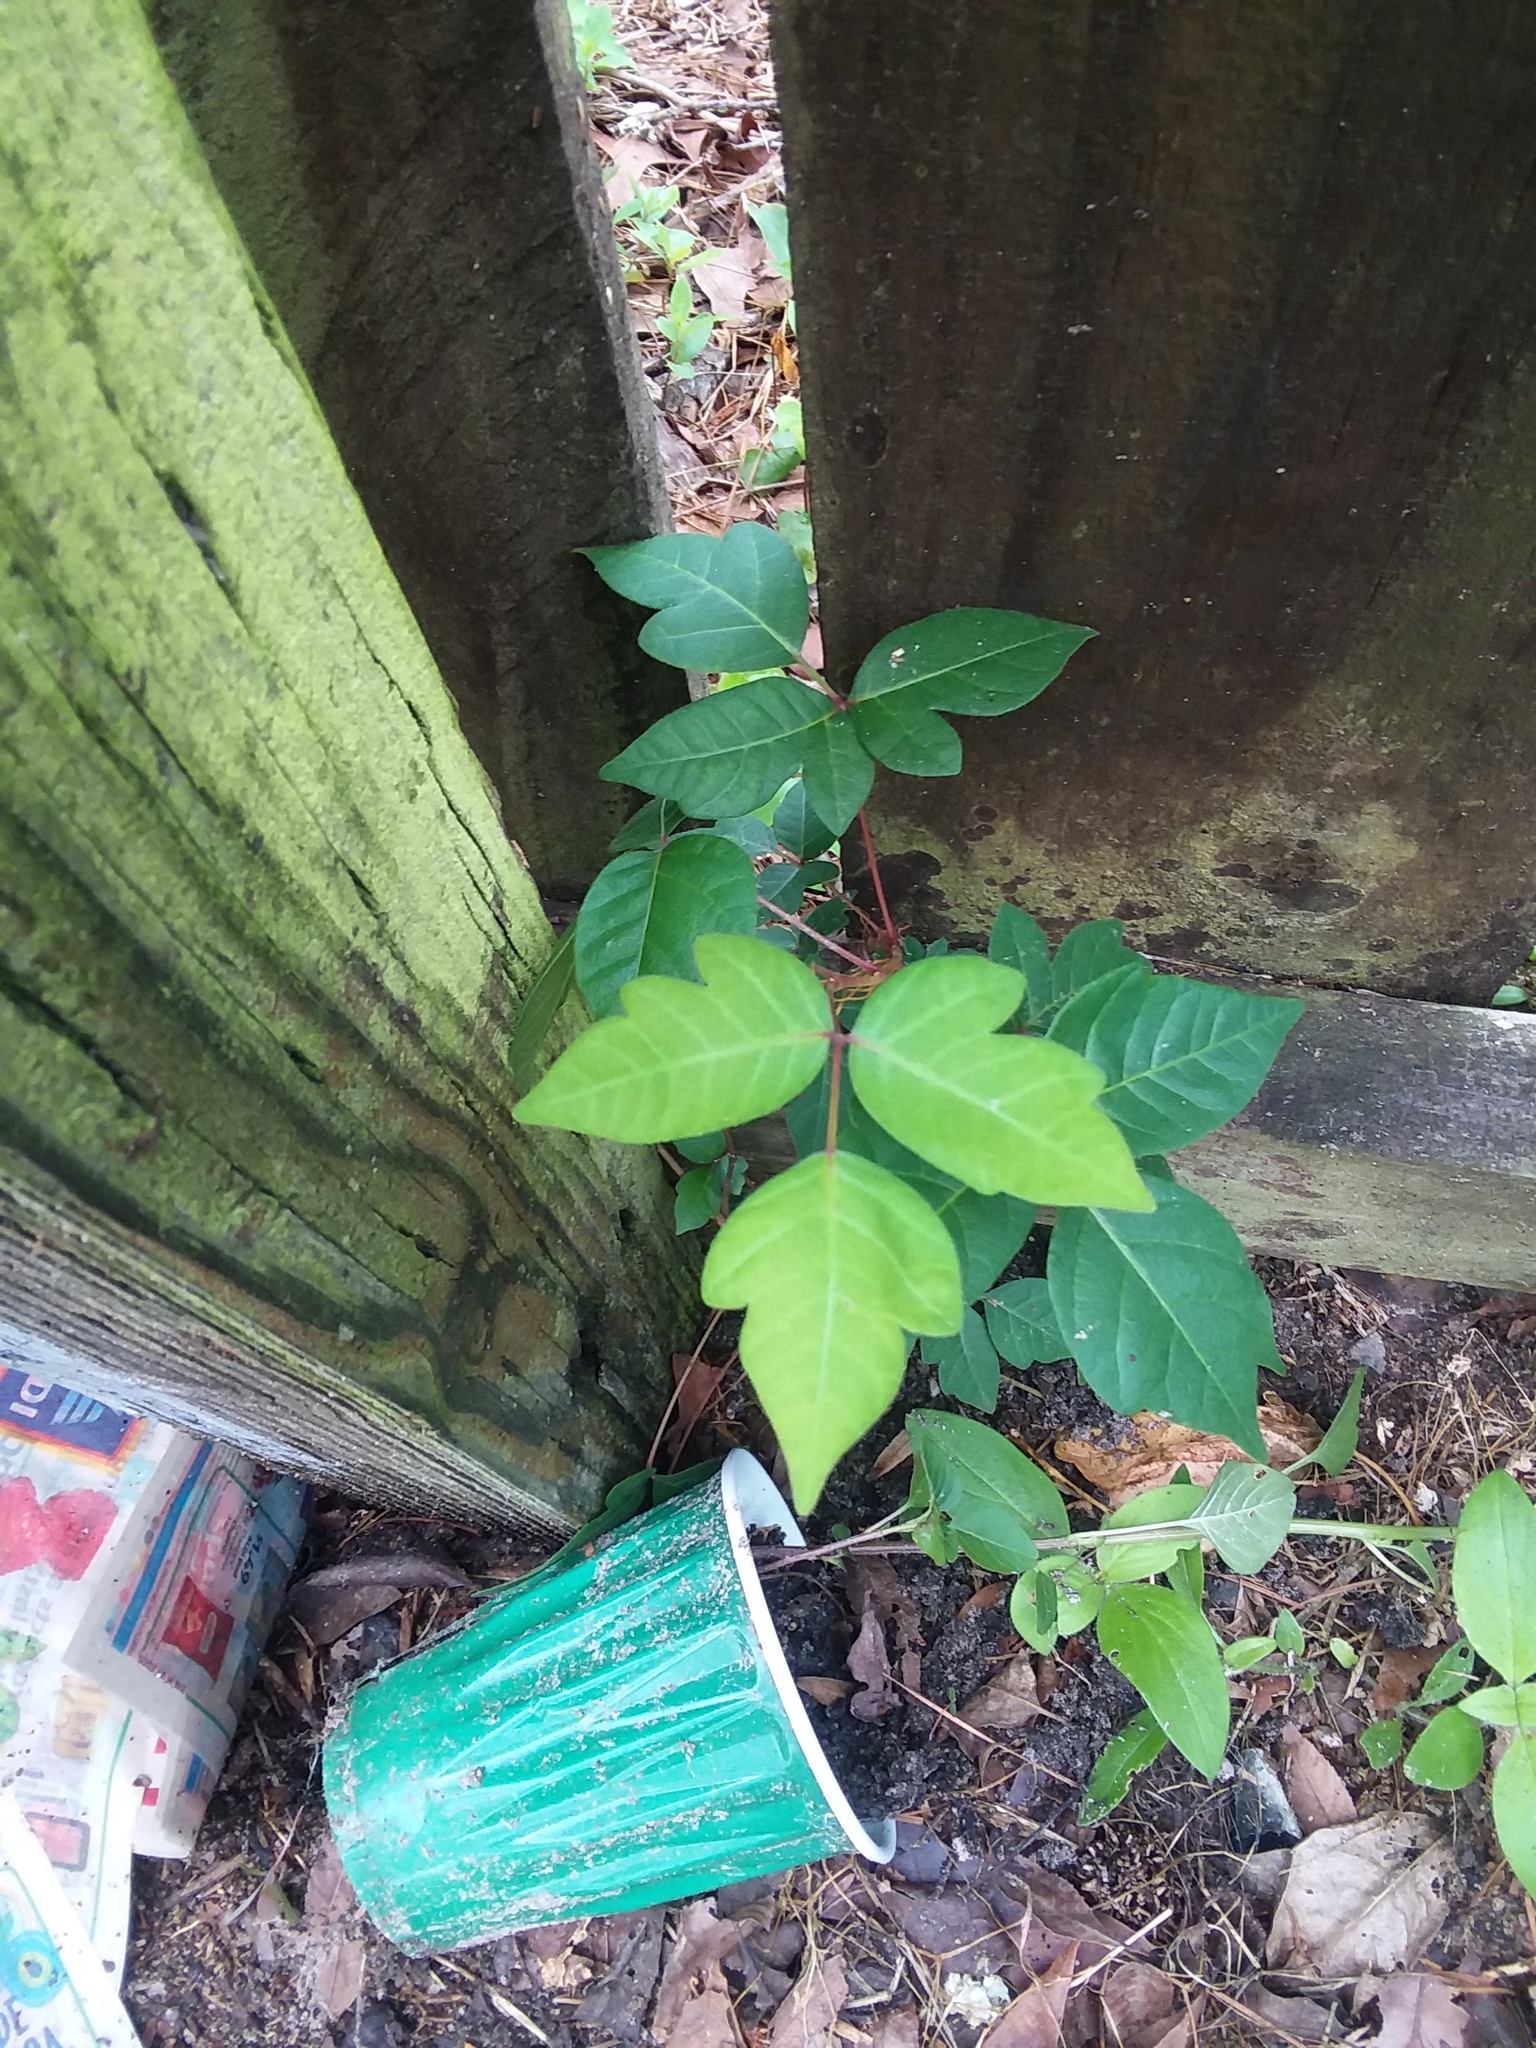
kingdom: Plantae
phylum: Tracheophyta
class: Magnoliopsida
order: Sapindales
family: Anacardiaceae
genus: Toxicodendron
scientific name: Toxicodendron radicans
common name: Poison ivy
